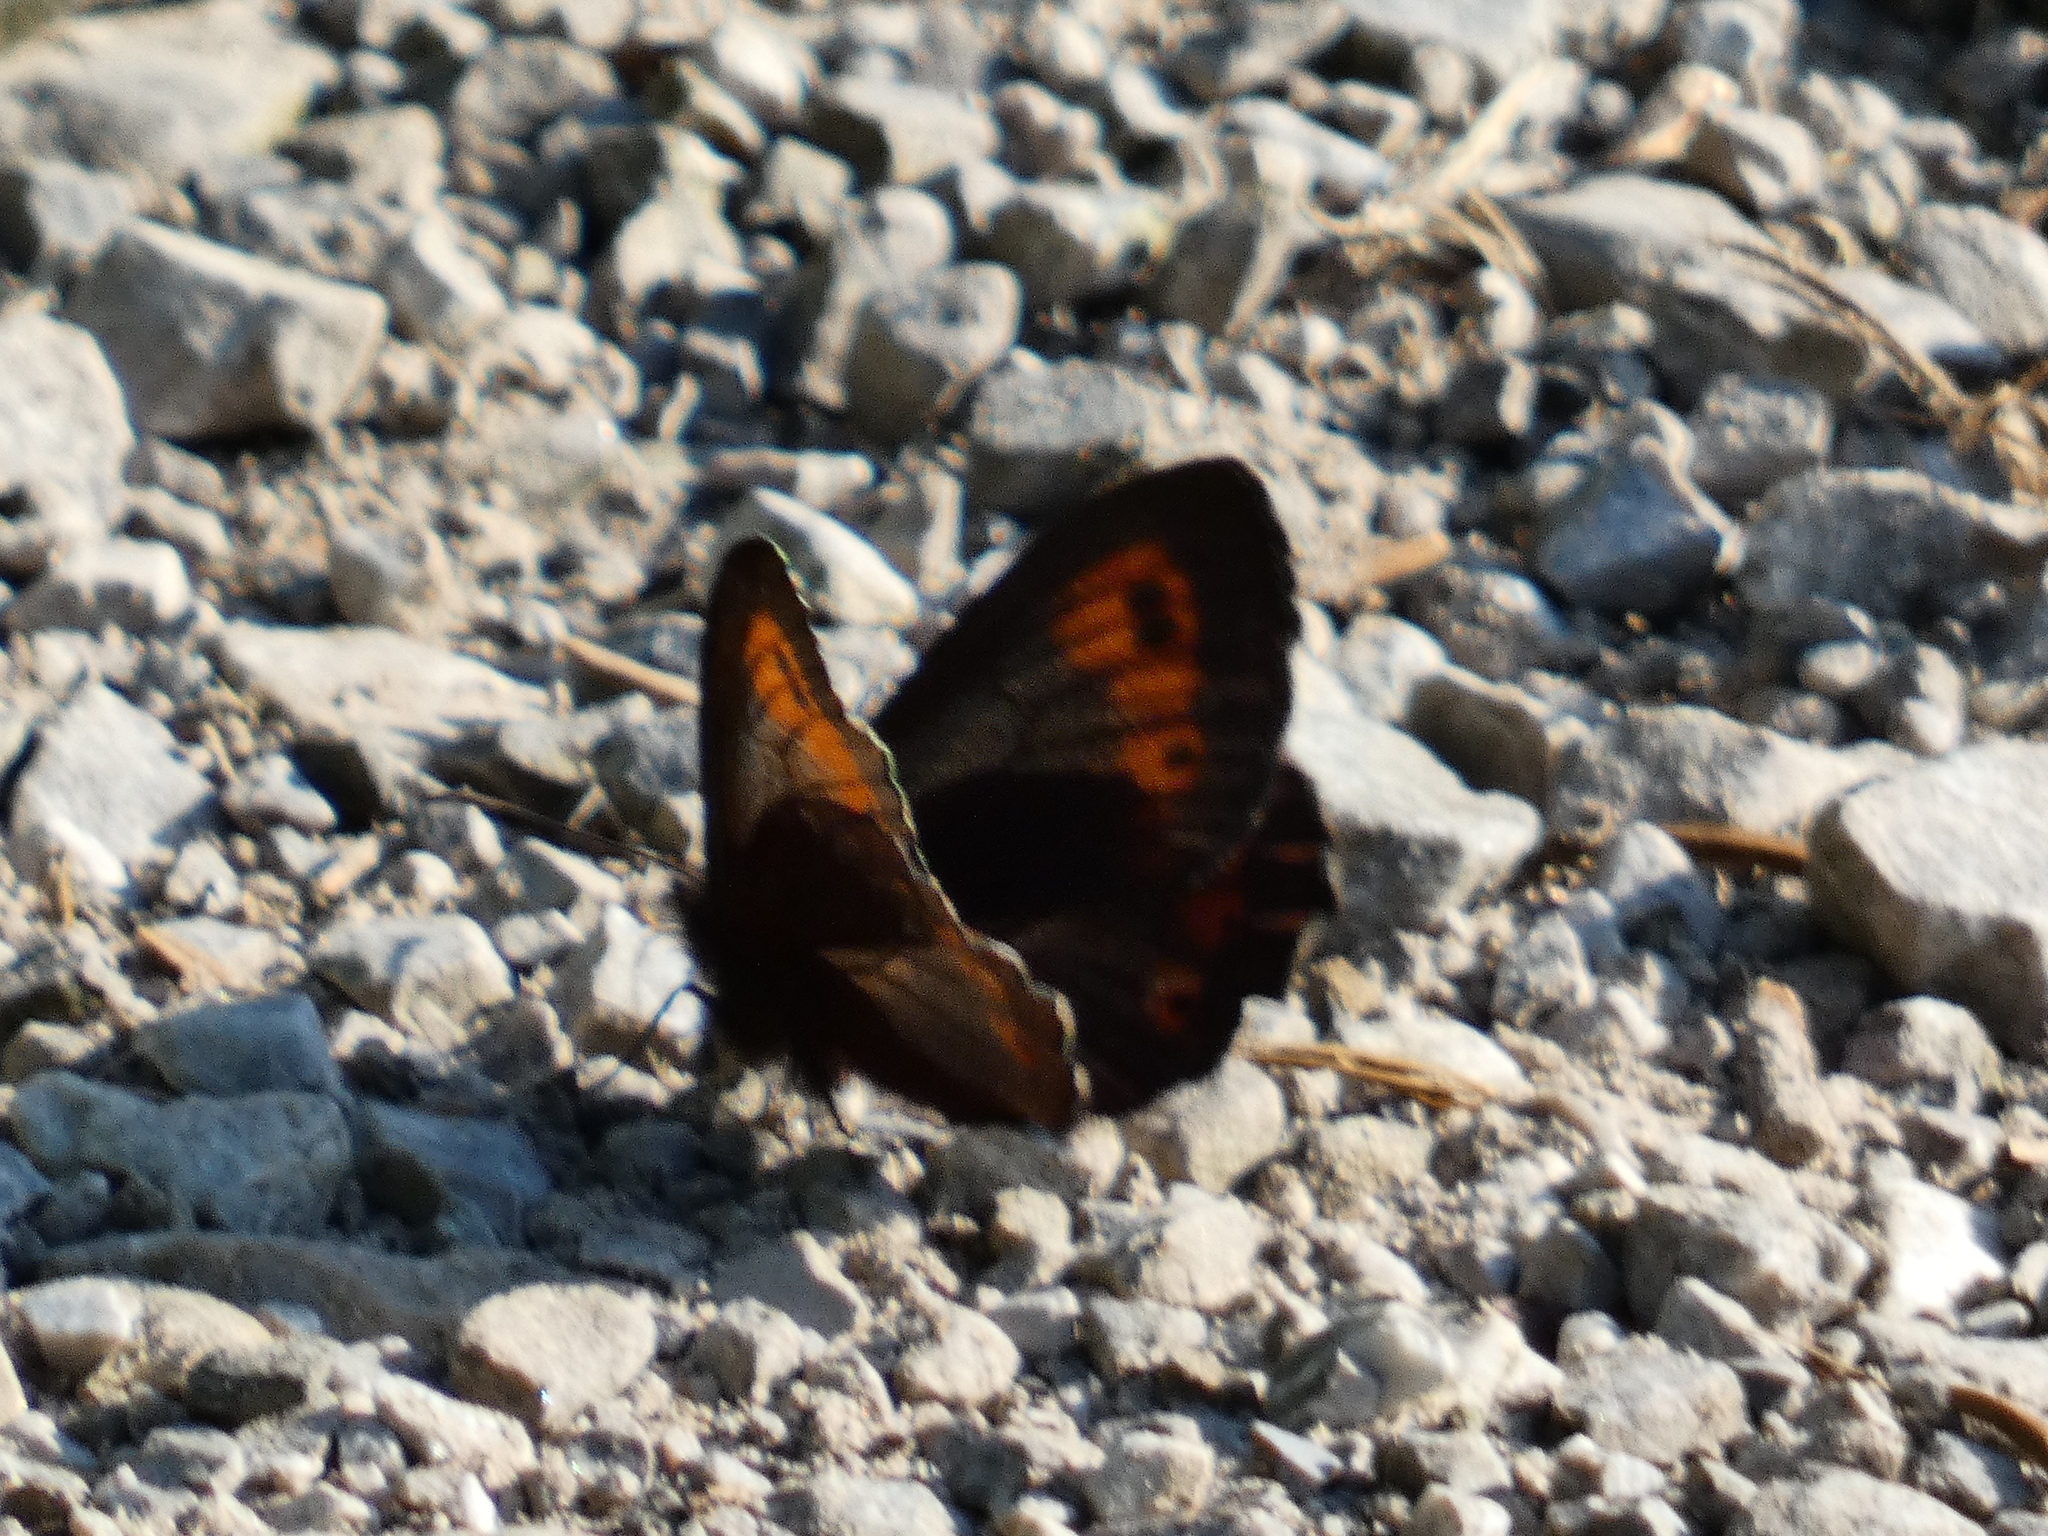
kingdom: Animalia
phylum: Arthropoda
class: Insecta
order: Lepidoptera
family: Nymphalidae
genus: Erebia
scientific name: Erebia tyndarus
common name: Swiss brassy ringlet
